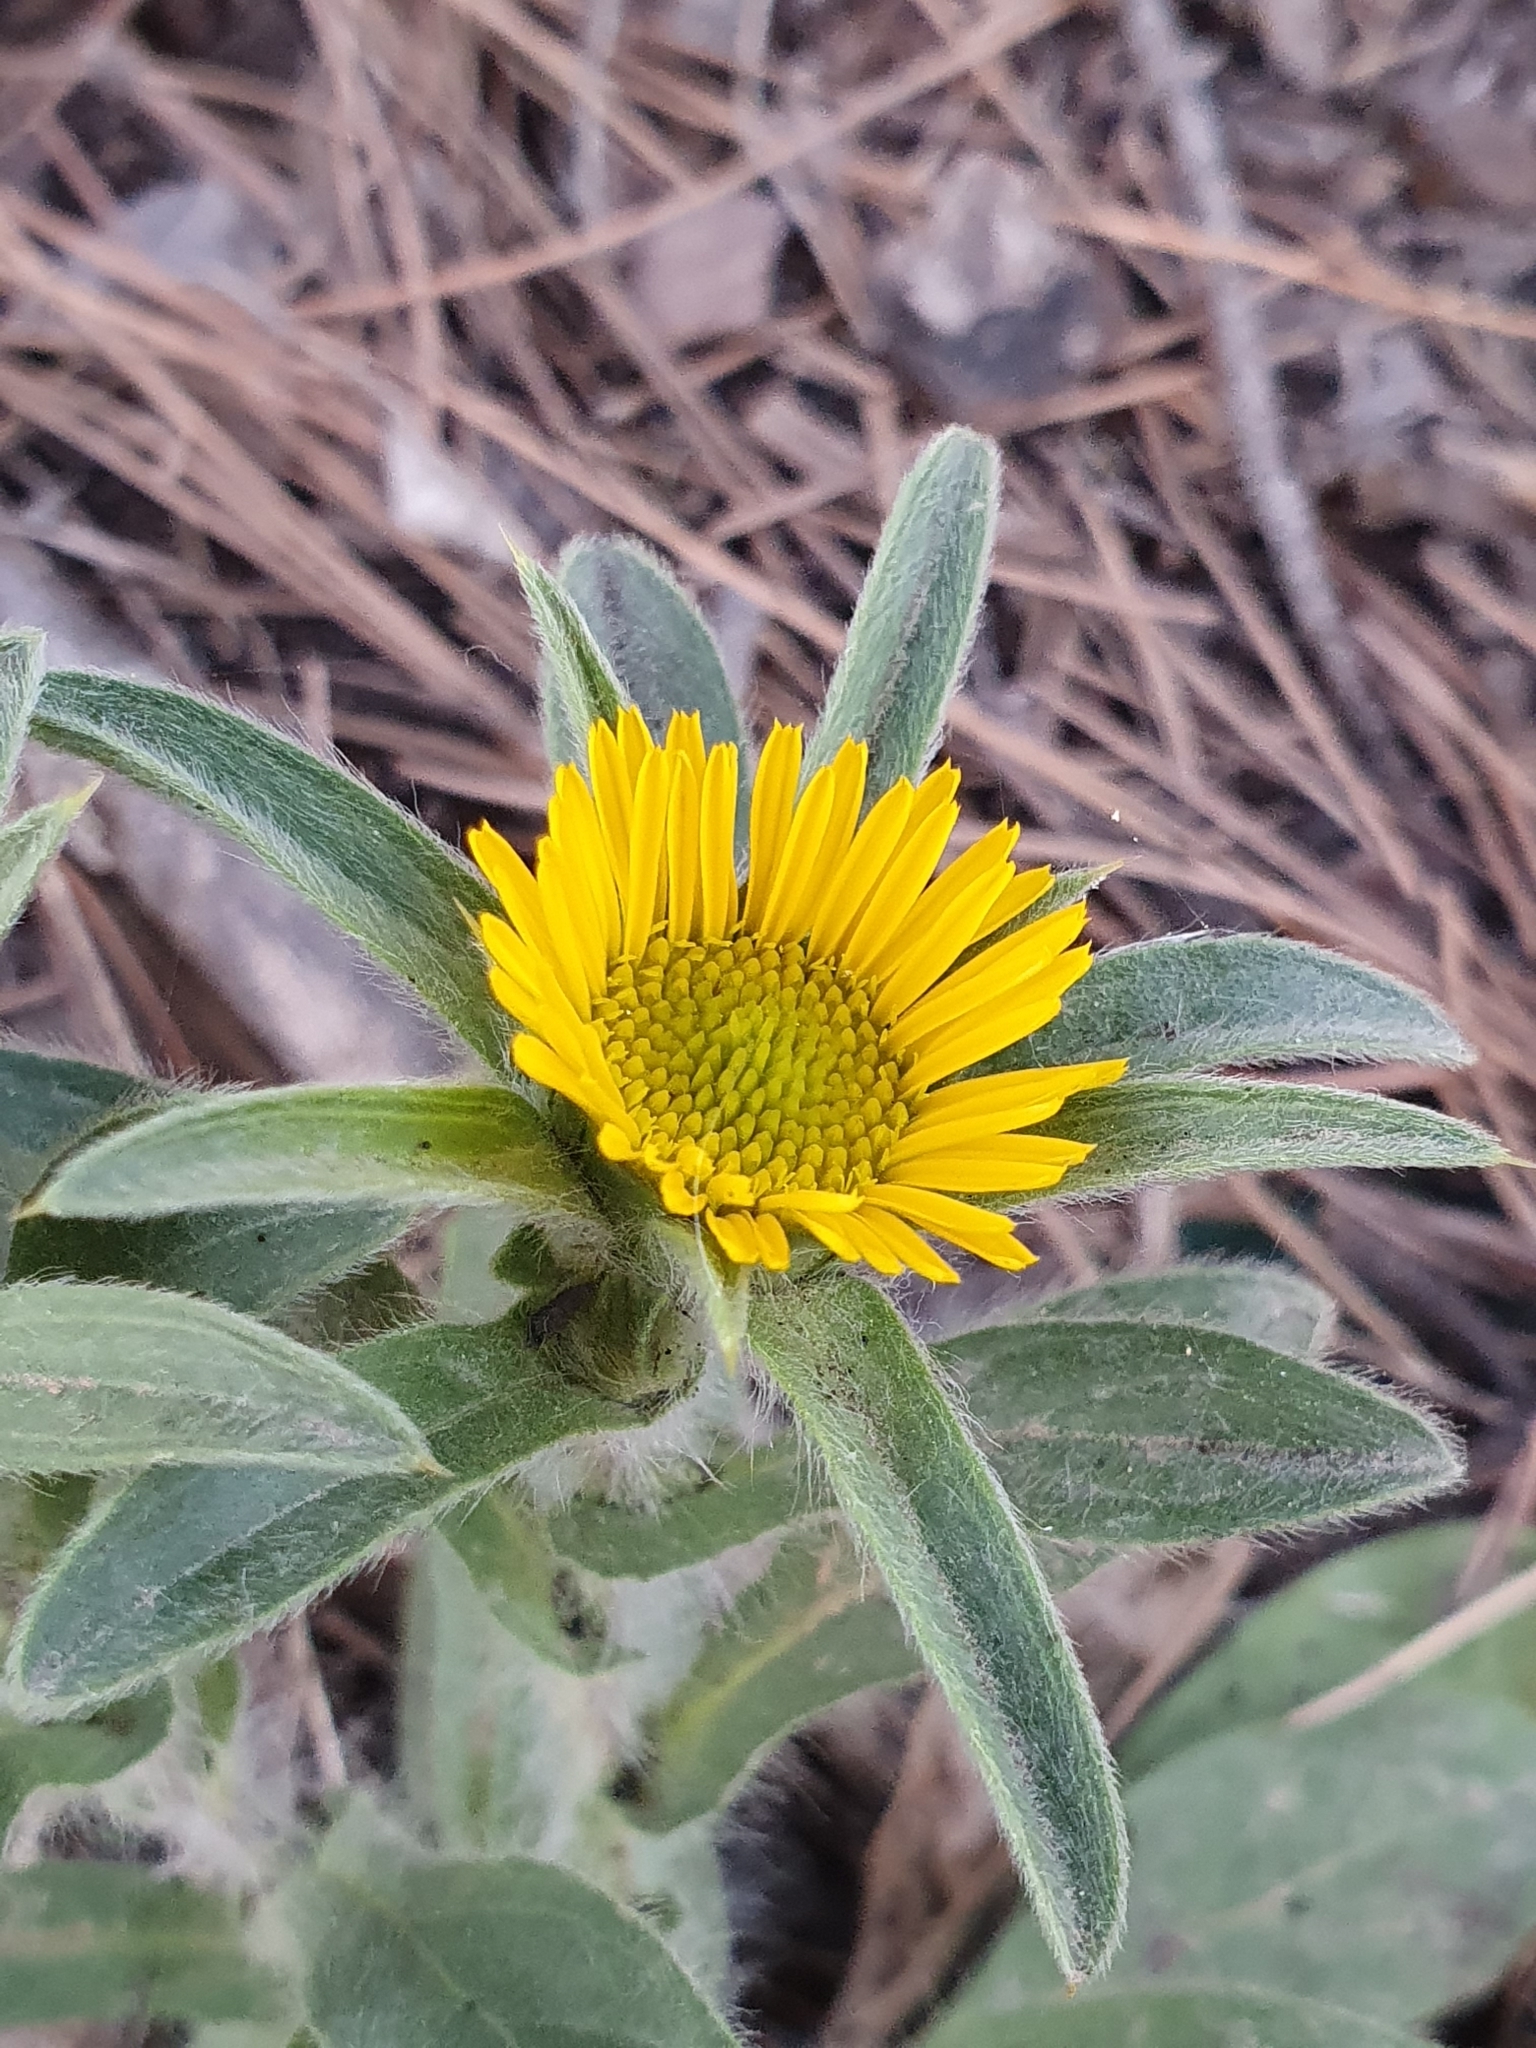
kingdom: Plantae
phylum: Tracheophyta
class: Magnoliopsida
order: Asterales
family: Asteraceae
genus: Pallenis
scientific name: Pallenis spinosa
